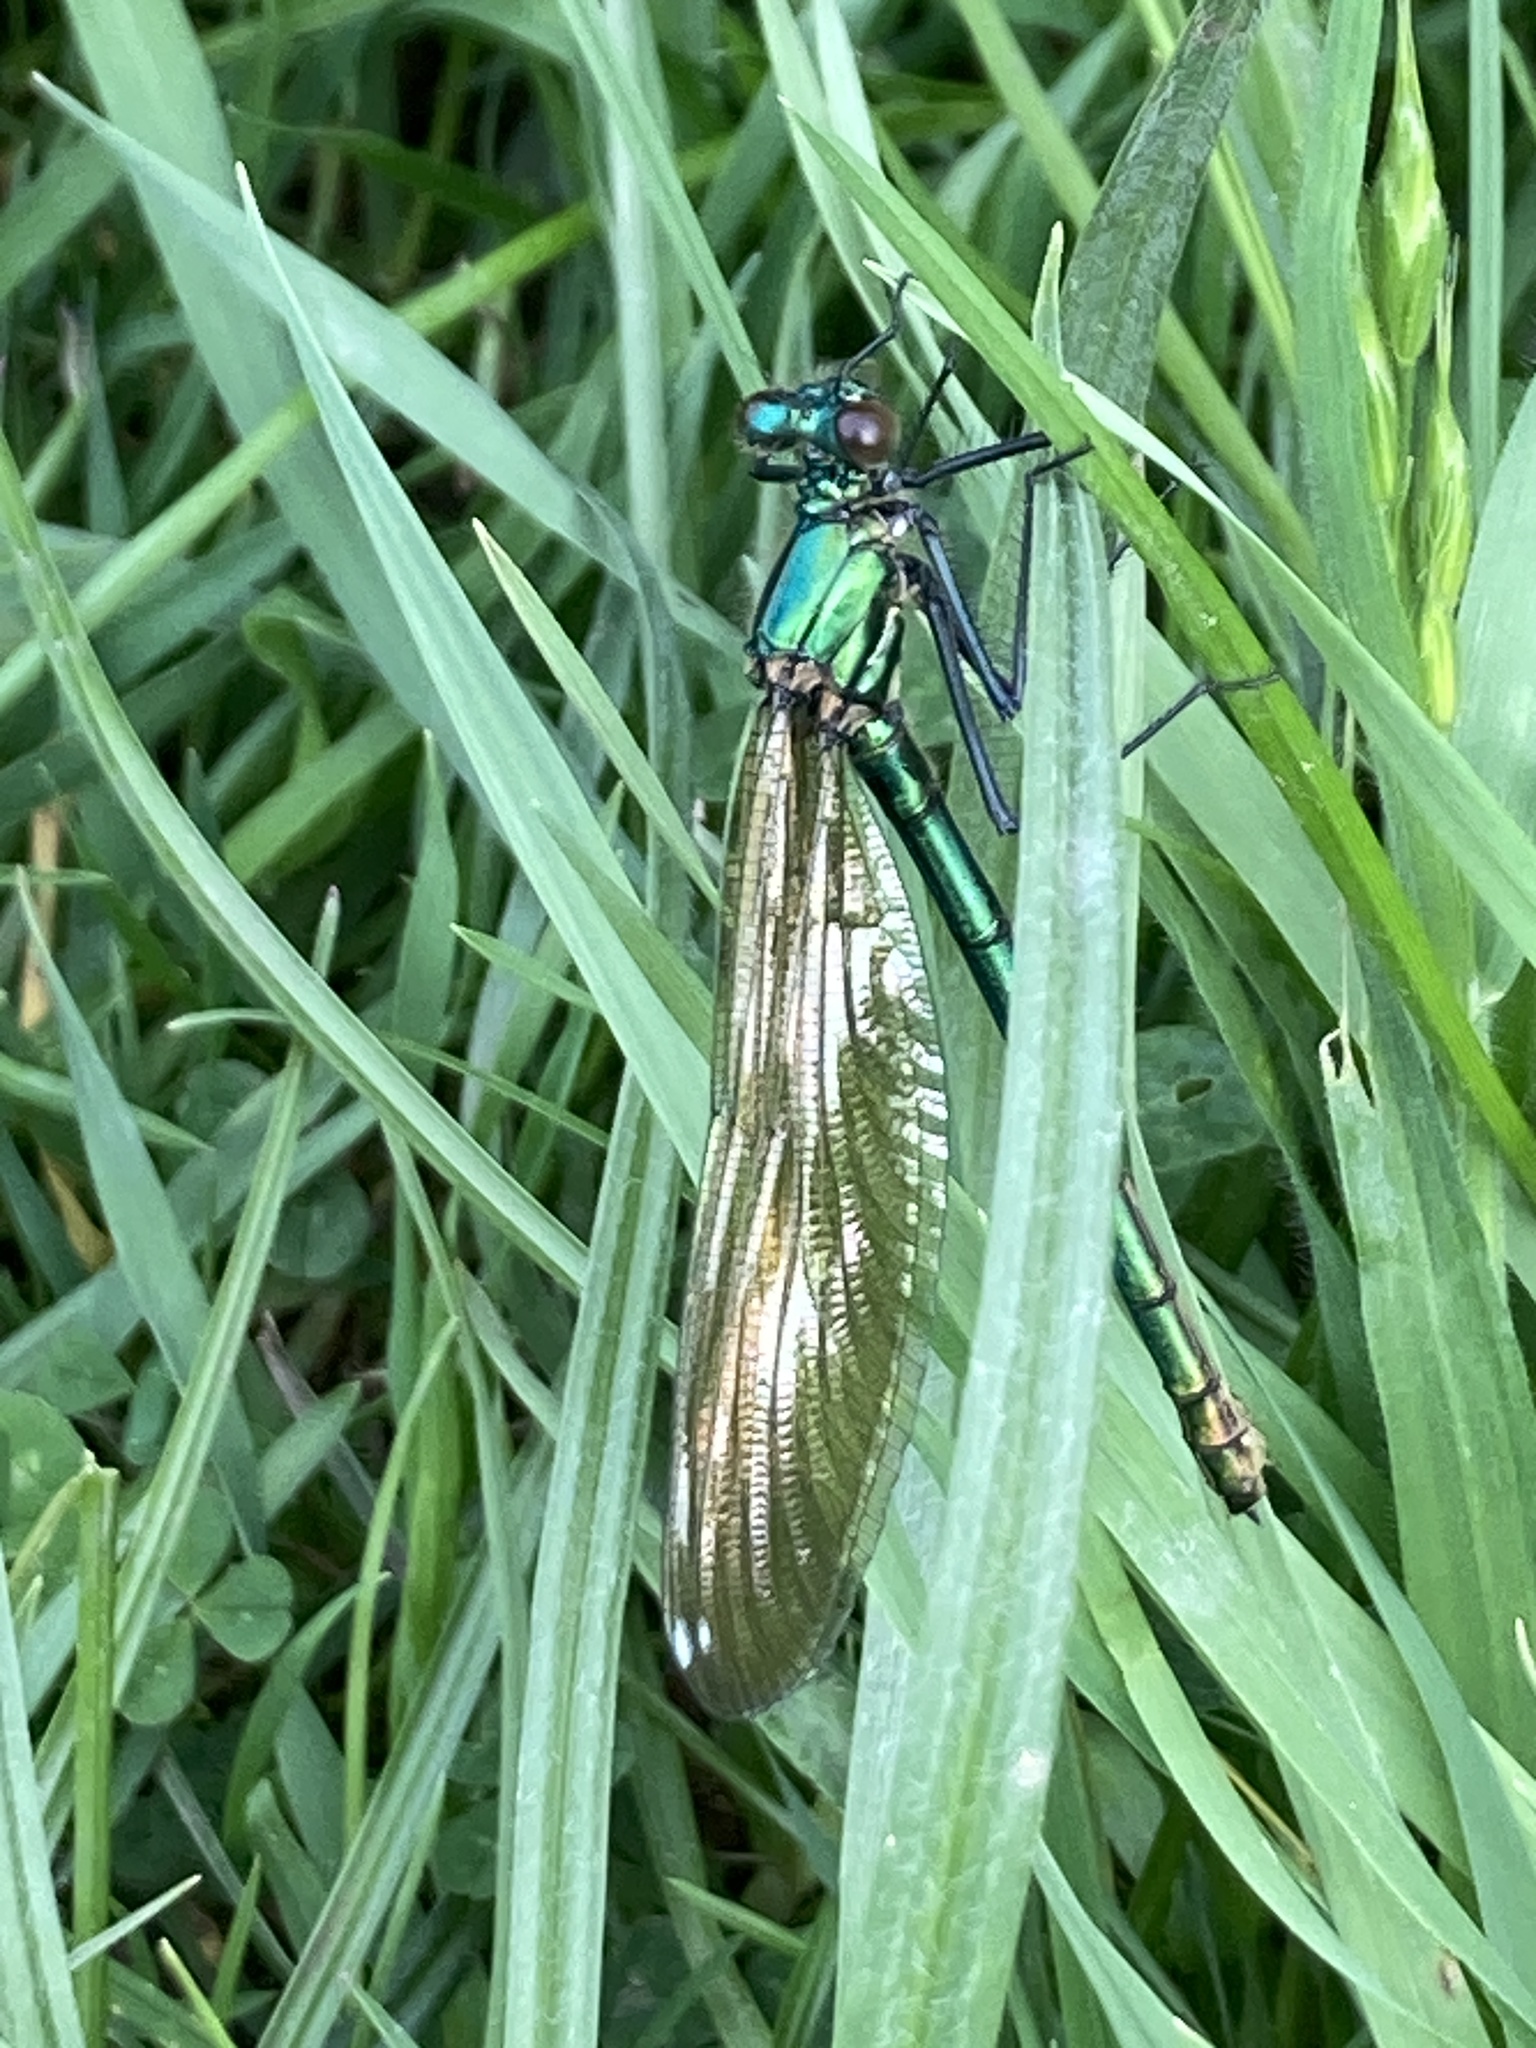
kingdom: Animalia
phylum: Arthropoda
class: Insecta
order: Odonata
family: Calopterygidae
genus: Calopteryx
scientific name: Calopteryx splendens
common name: Banded demoiselle
